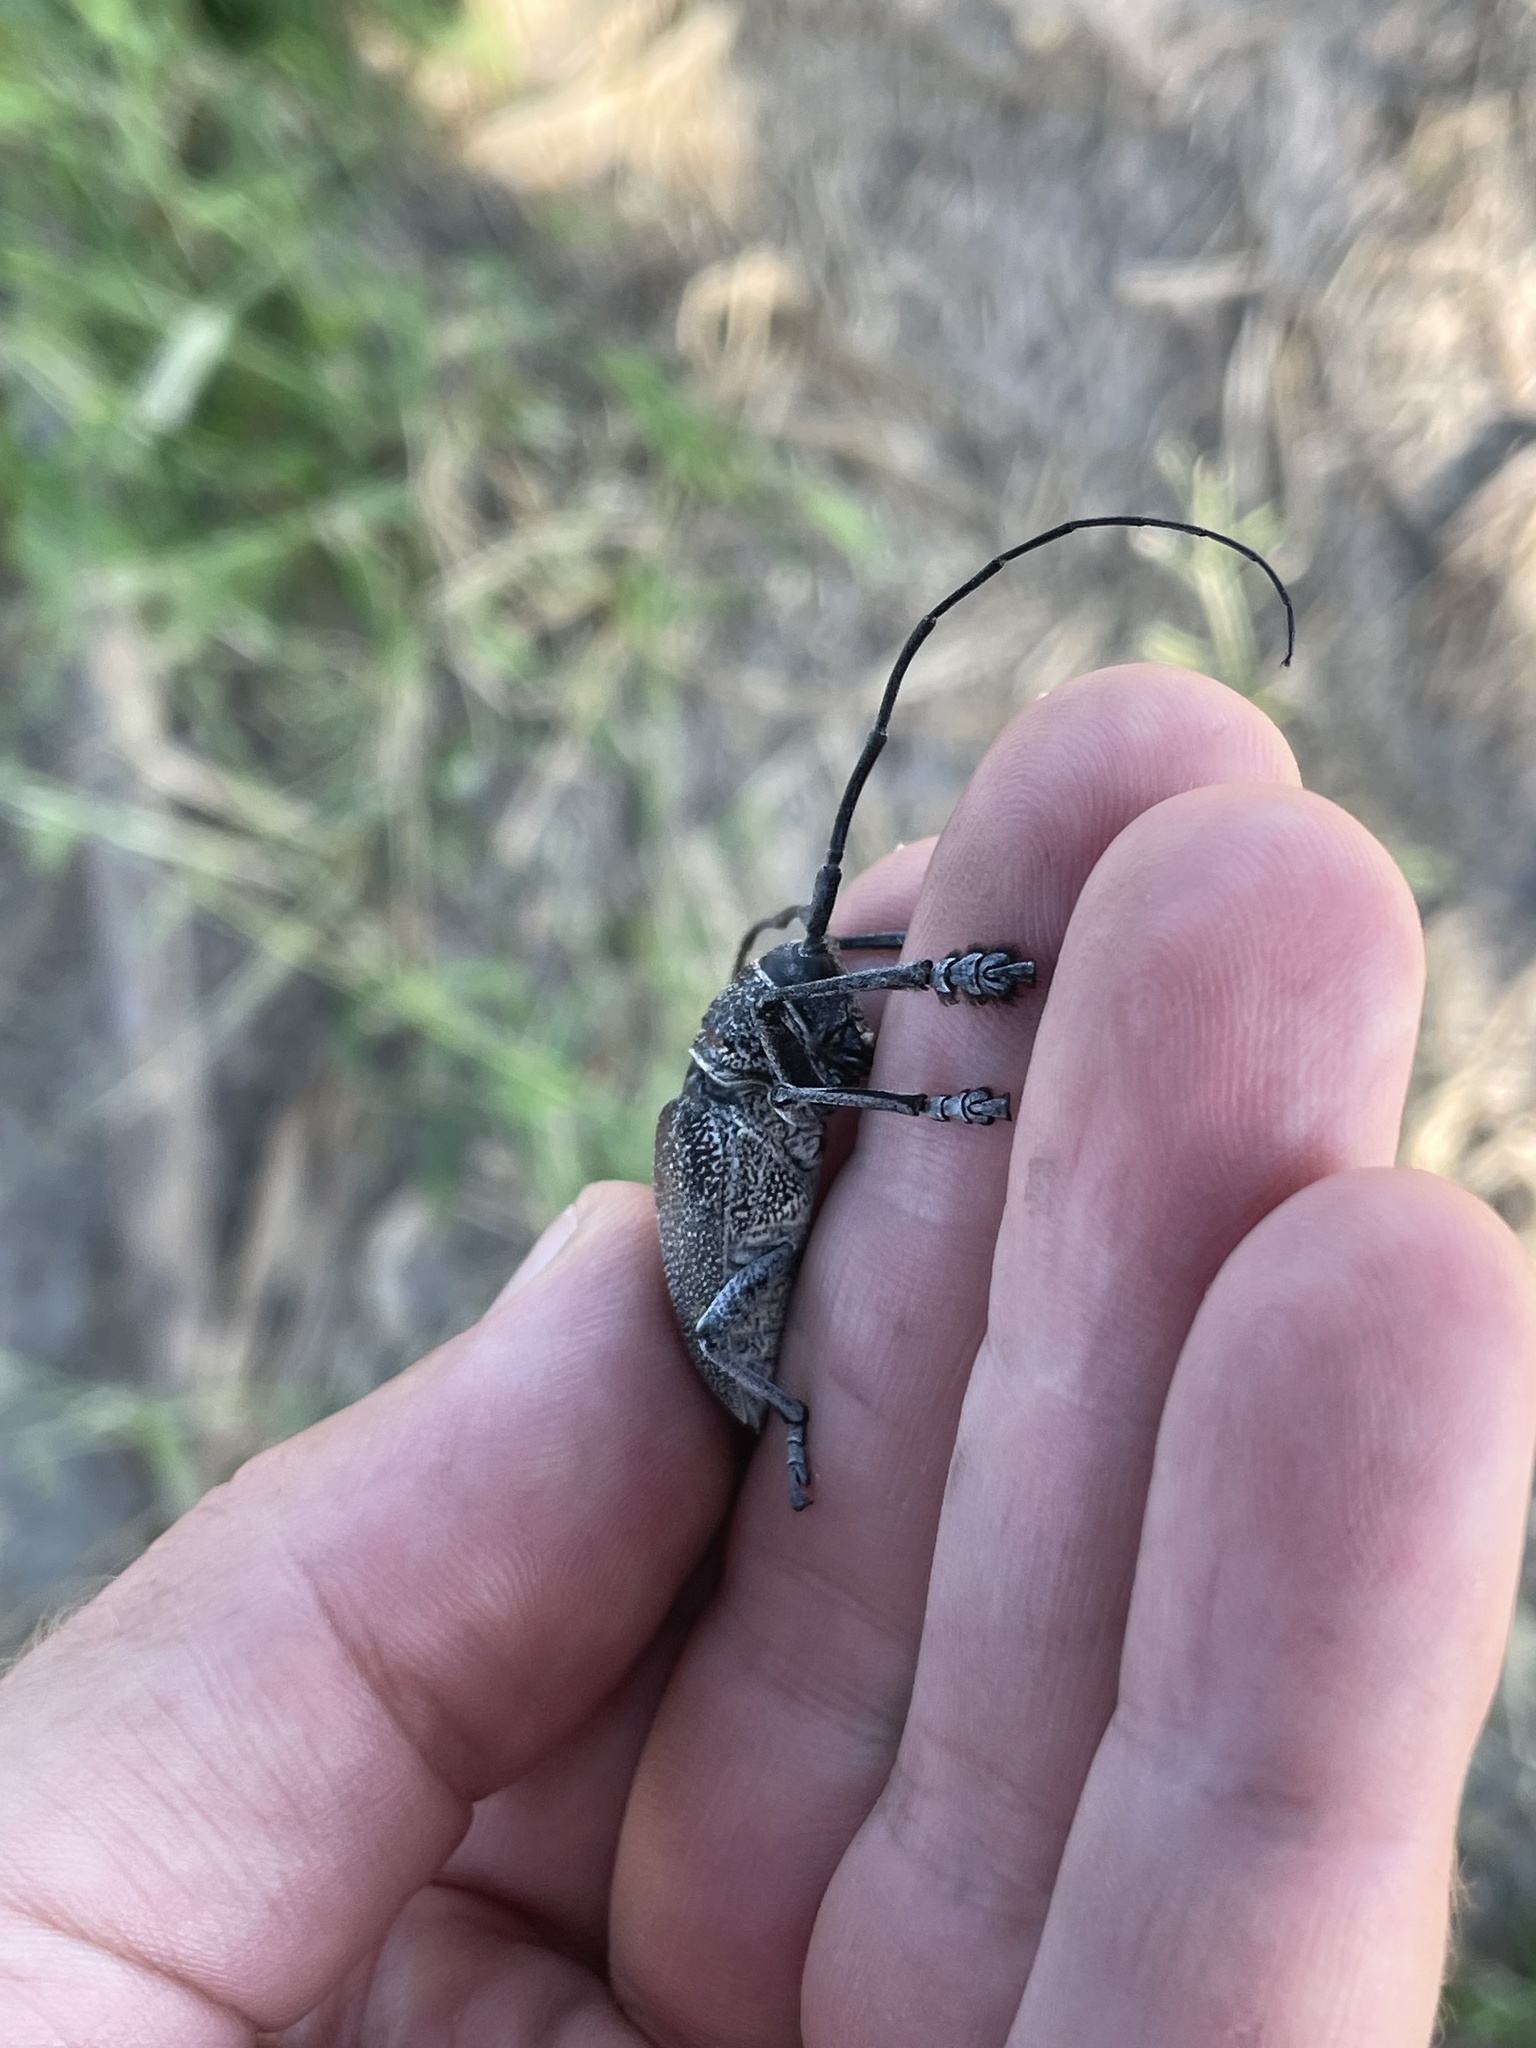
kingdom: Animalia
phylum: Arthropoda
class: Insecta
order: Coleoptera
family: Cerambycidae
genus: Pycnopsis
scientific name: Pycnopsis brachyptera
